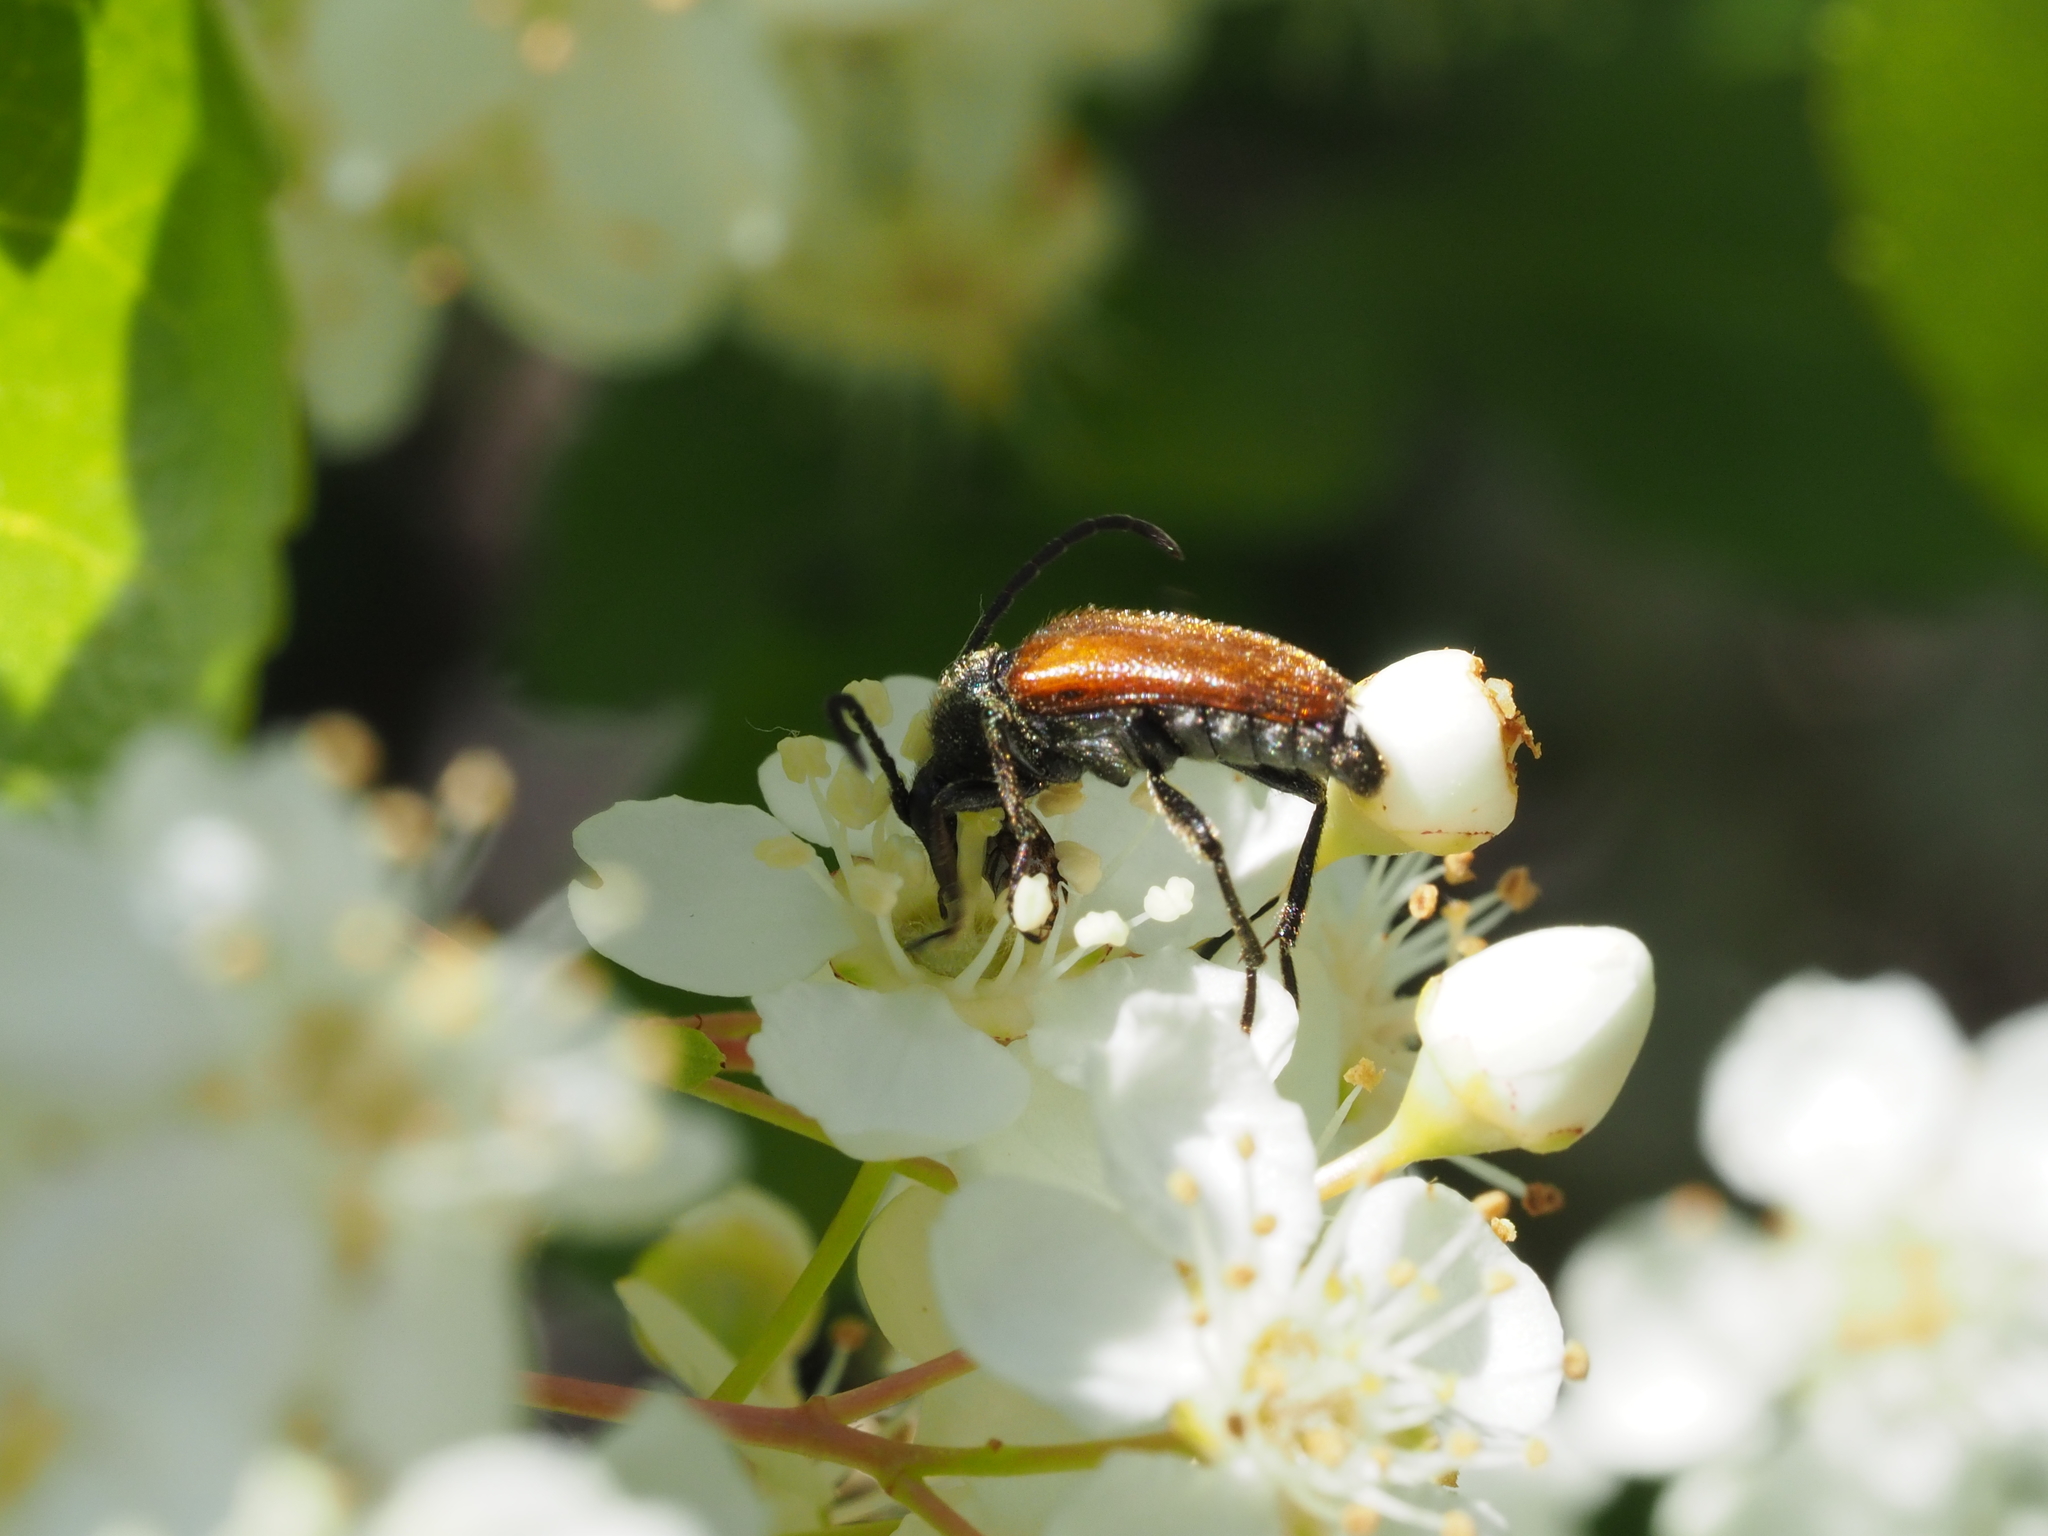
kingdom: Animalia
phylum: Arthropoda
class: Insecta
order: Coleoptera
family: Cerambycidae
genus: Pseudovadonia
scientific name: Pseudovadonia livida
